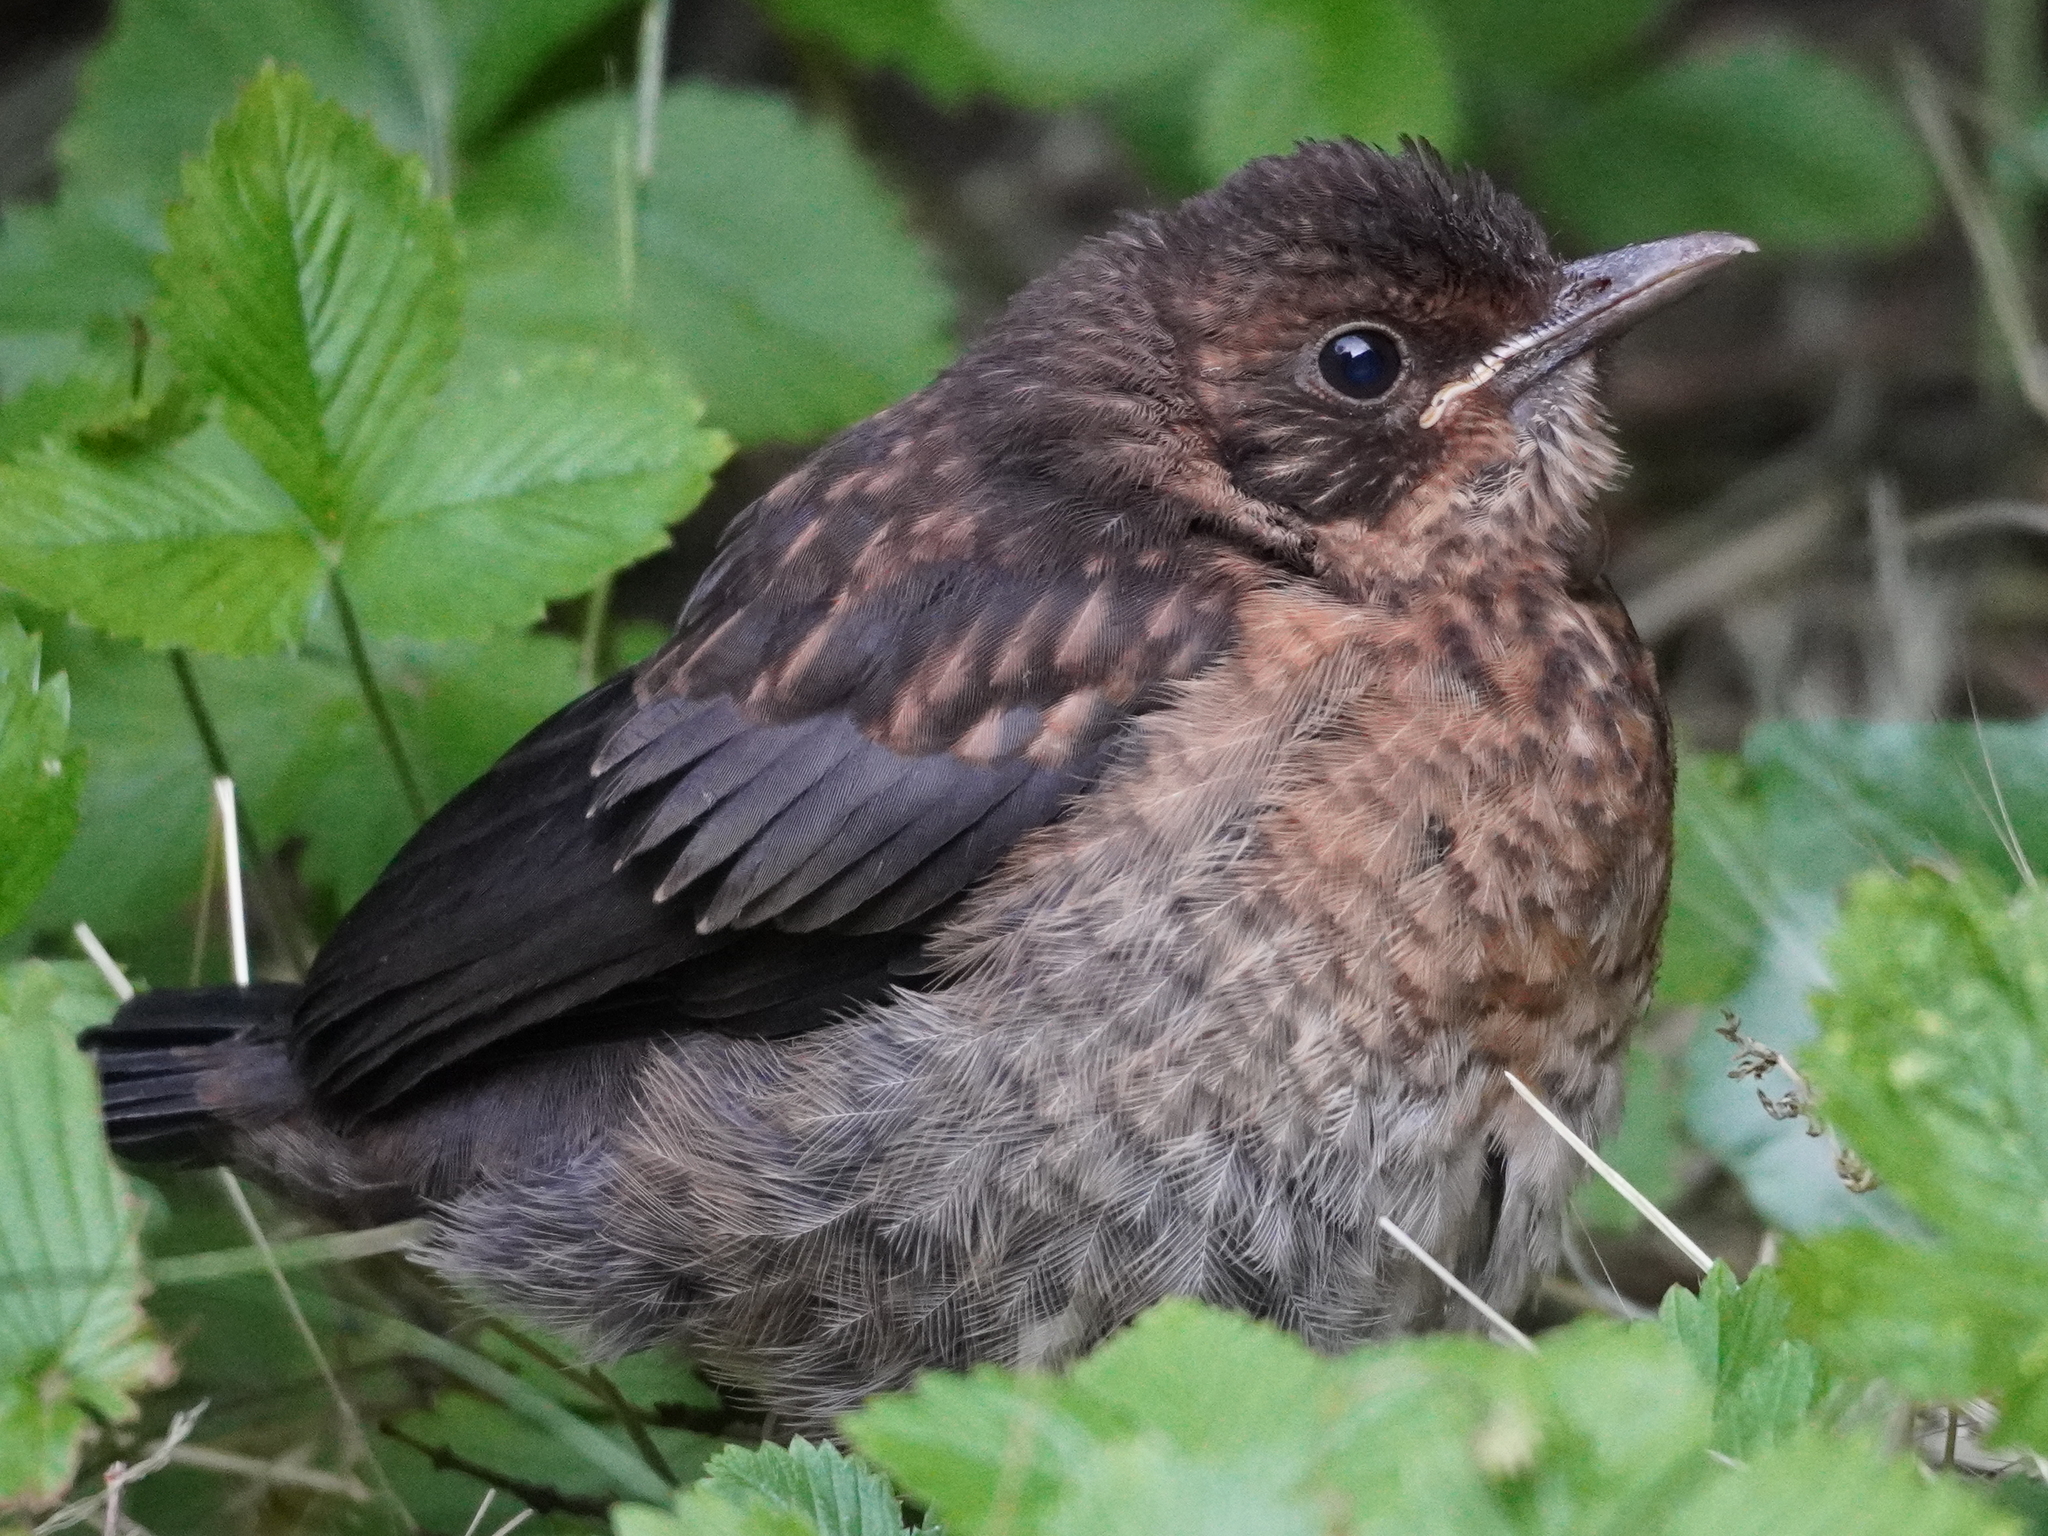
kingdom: Animalia
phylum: Chordata
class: Aves
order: Passeriformes
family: Turdidae
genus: Turdus
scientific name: Turdus merula
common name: Common blackbird
